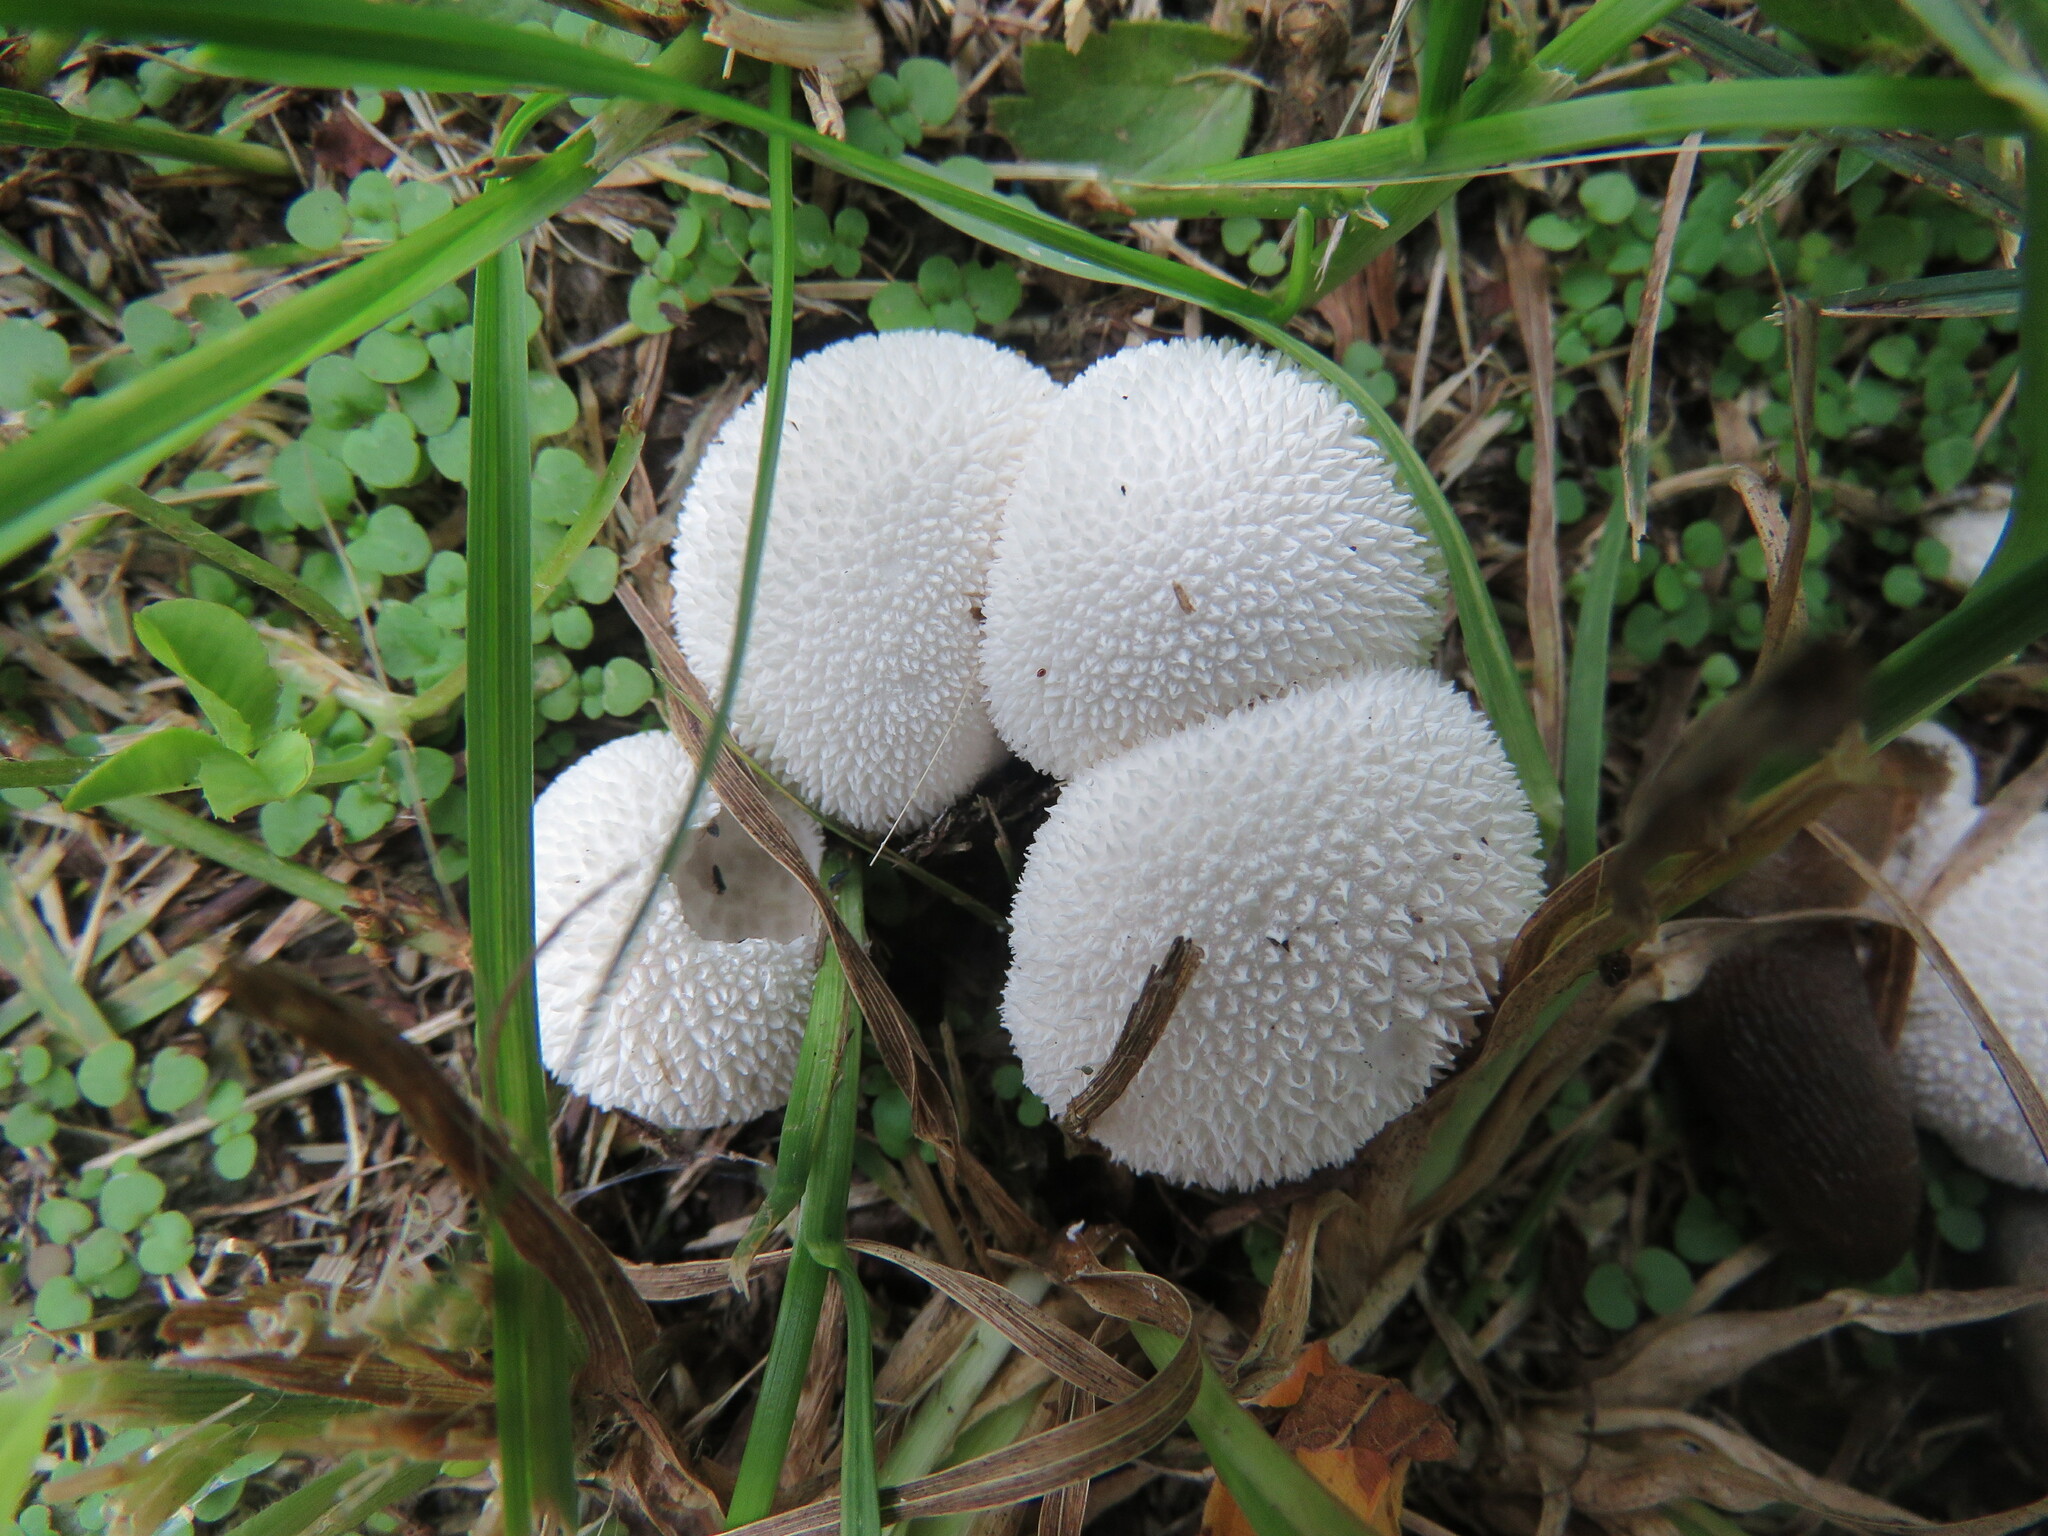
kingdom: Fungi
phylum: Basidiomycota
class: Agaricomycetes
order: Agaricales
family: Agaricaceae
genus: Lycoperdon
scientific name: Lycoperdon marginatum
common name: Peeling puffball
